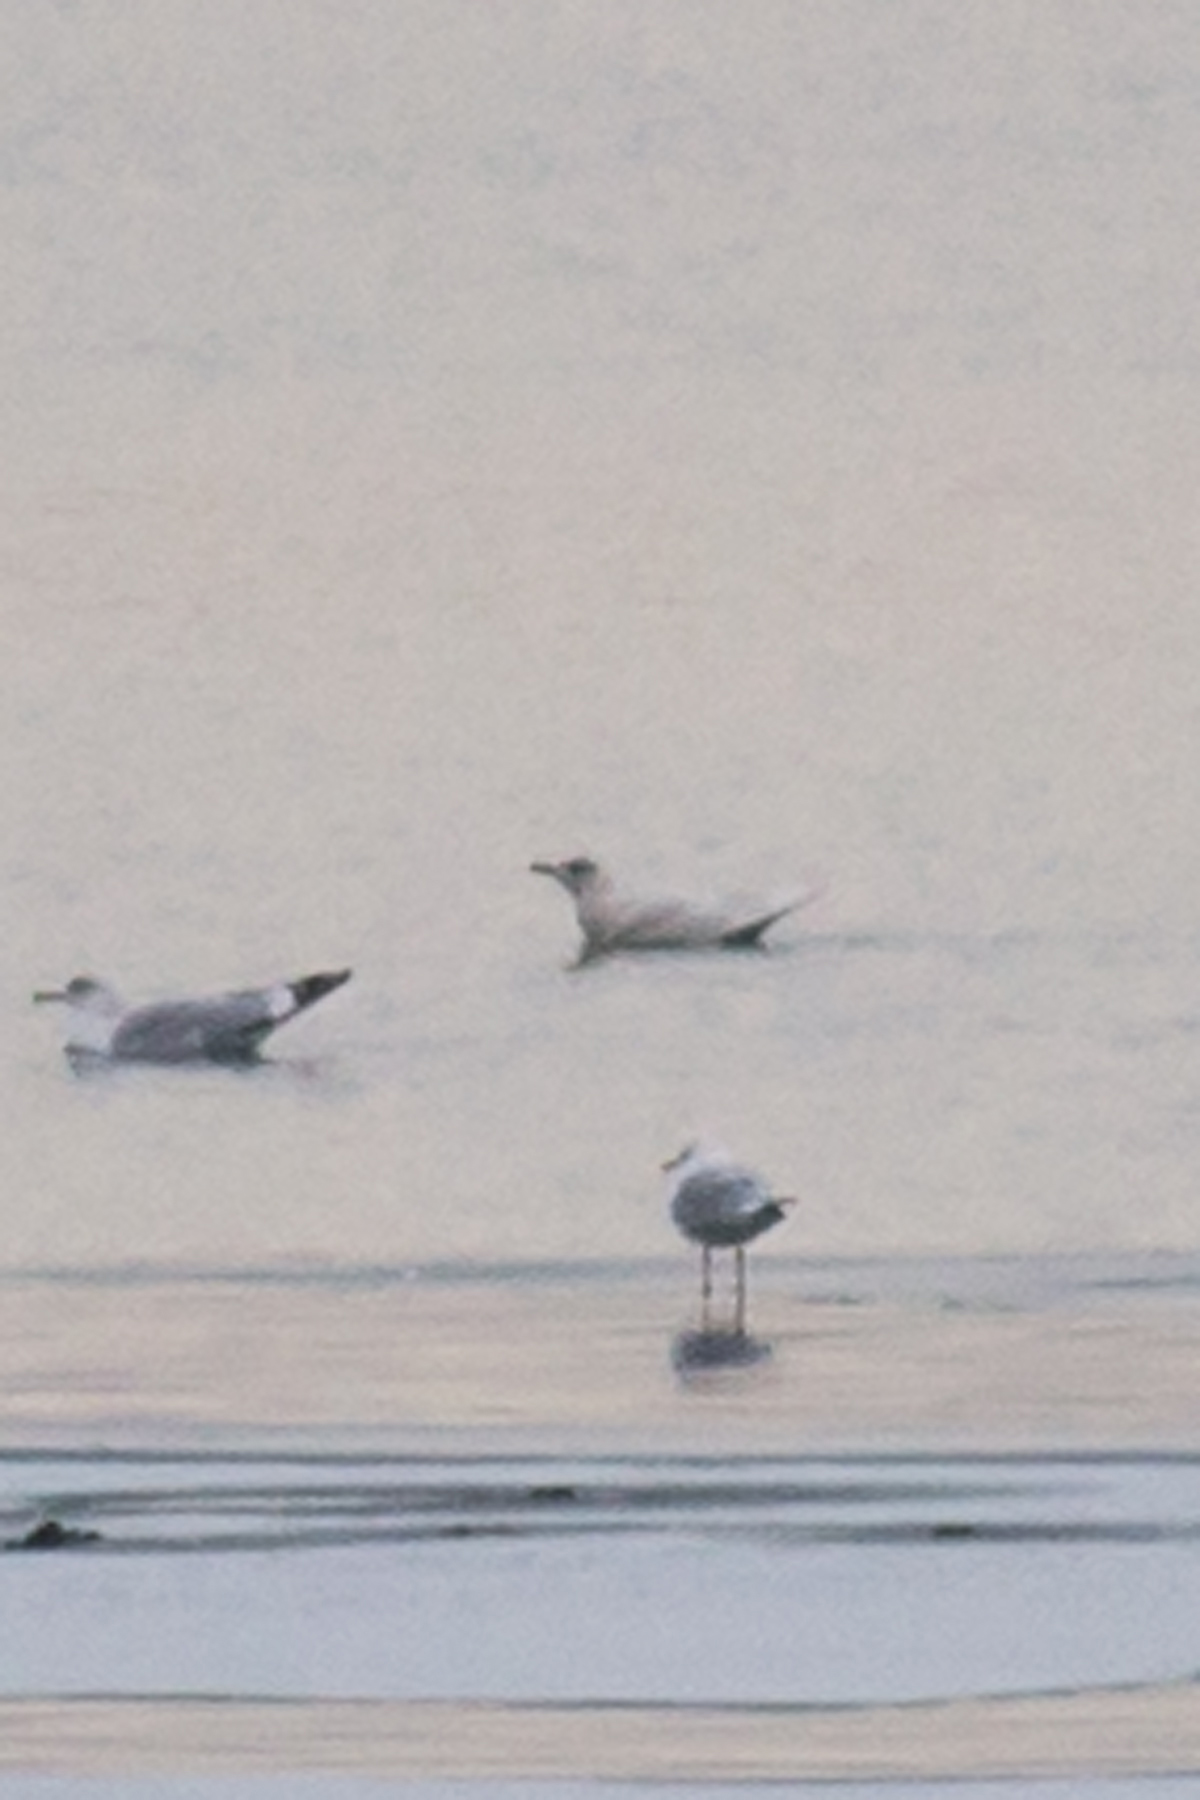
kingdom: Animalia
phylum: Chordata
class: Aves
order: Charadriiformes
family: Laridae
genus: Larus
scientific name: Larus glaucoides
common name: Iceland gull
